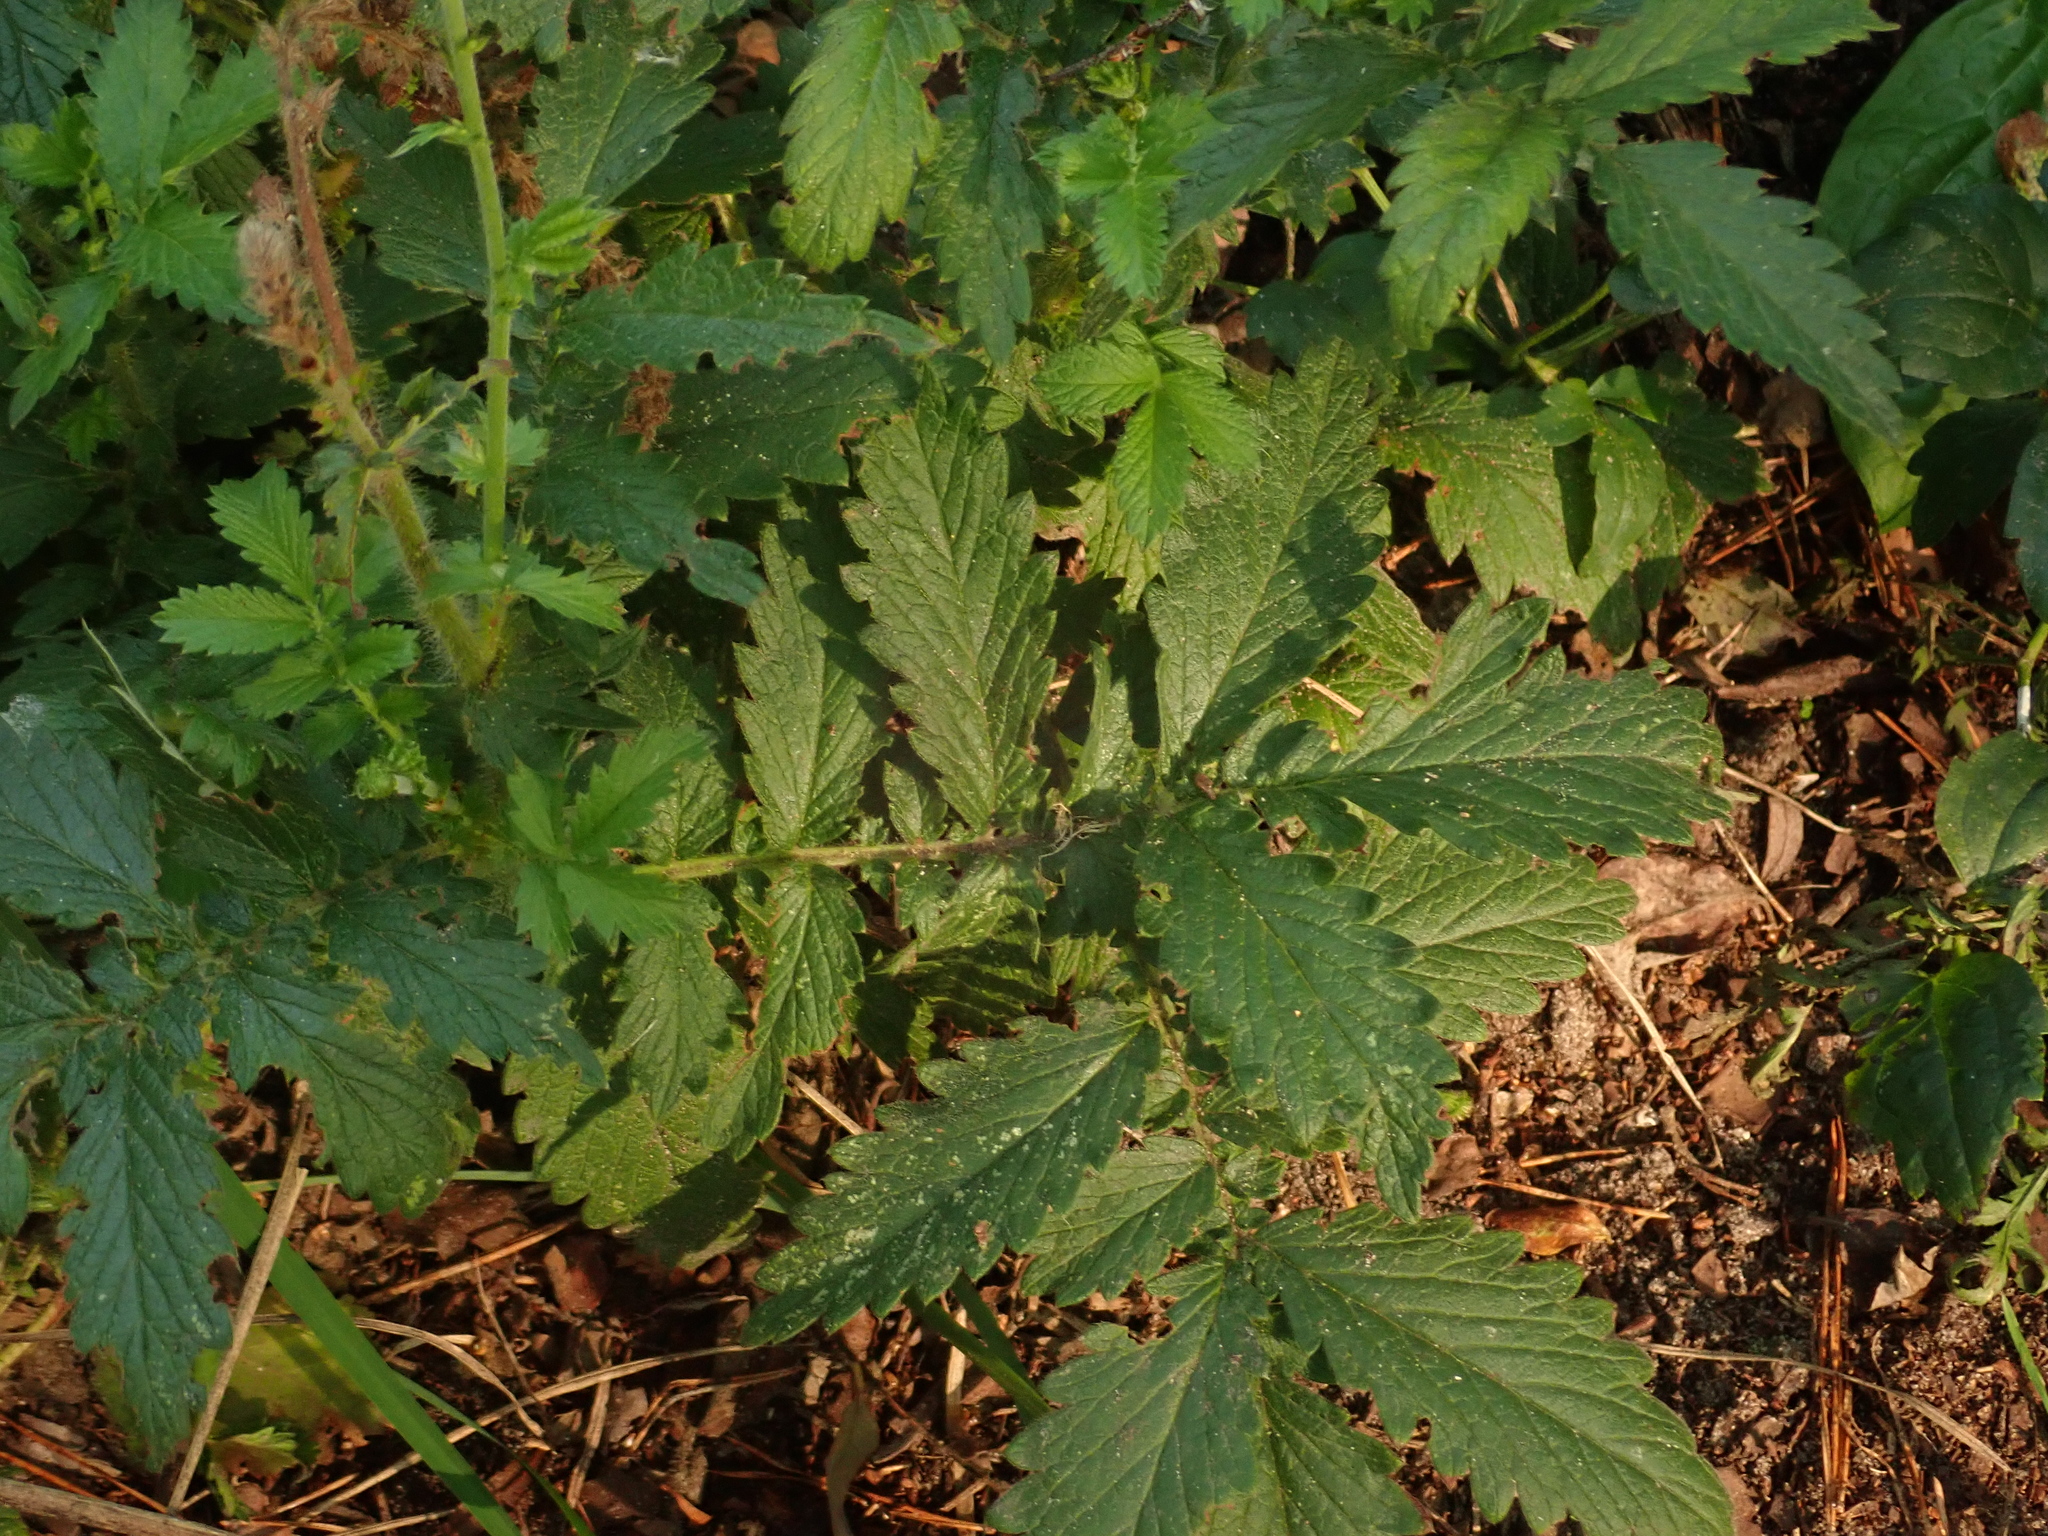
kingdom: Plantae
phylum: Tracheophyta
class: Magnoliopsida
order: Rosales
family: Rosaceae
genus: Agrimonia
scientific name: Agrimonia eupatoria
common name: Agrimony
